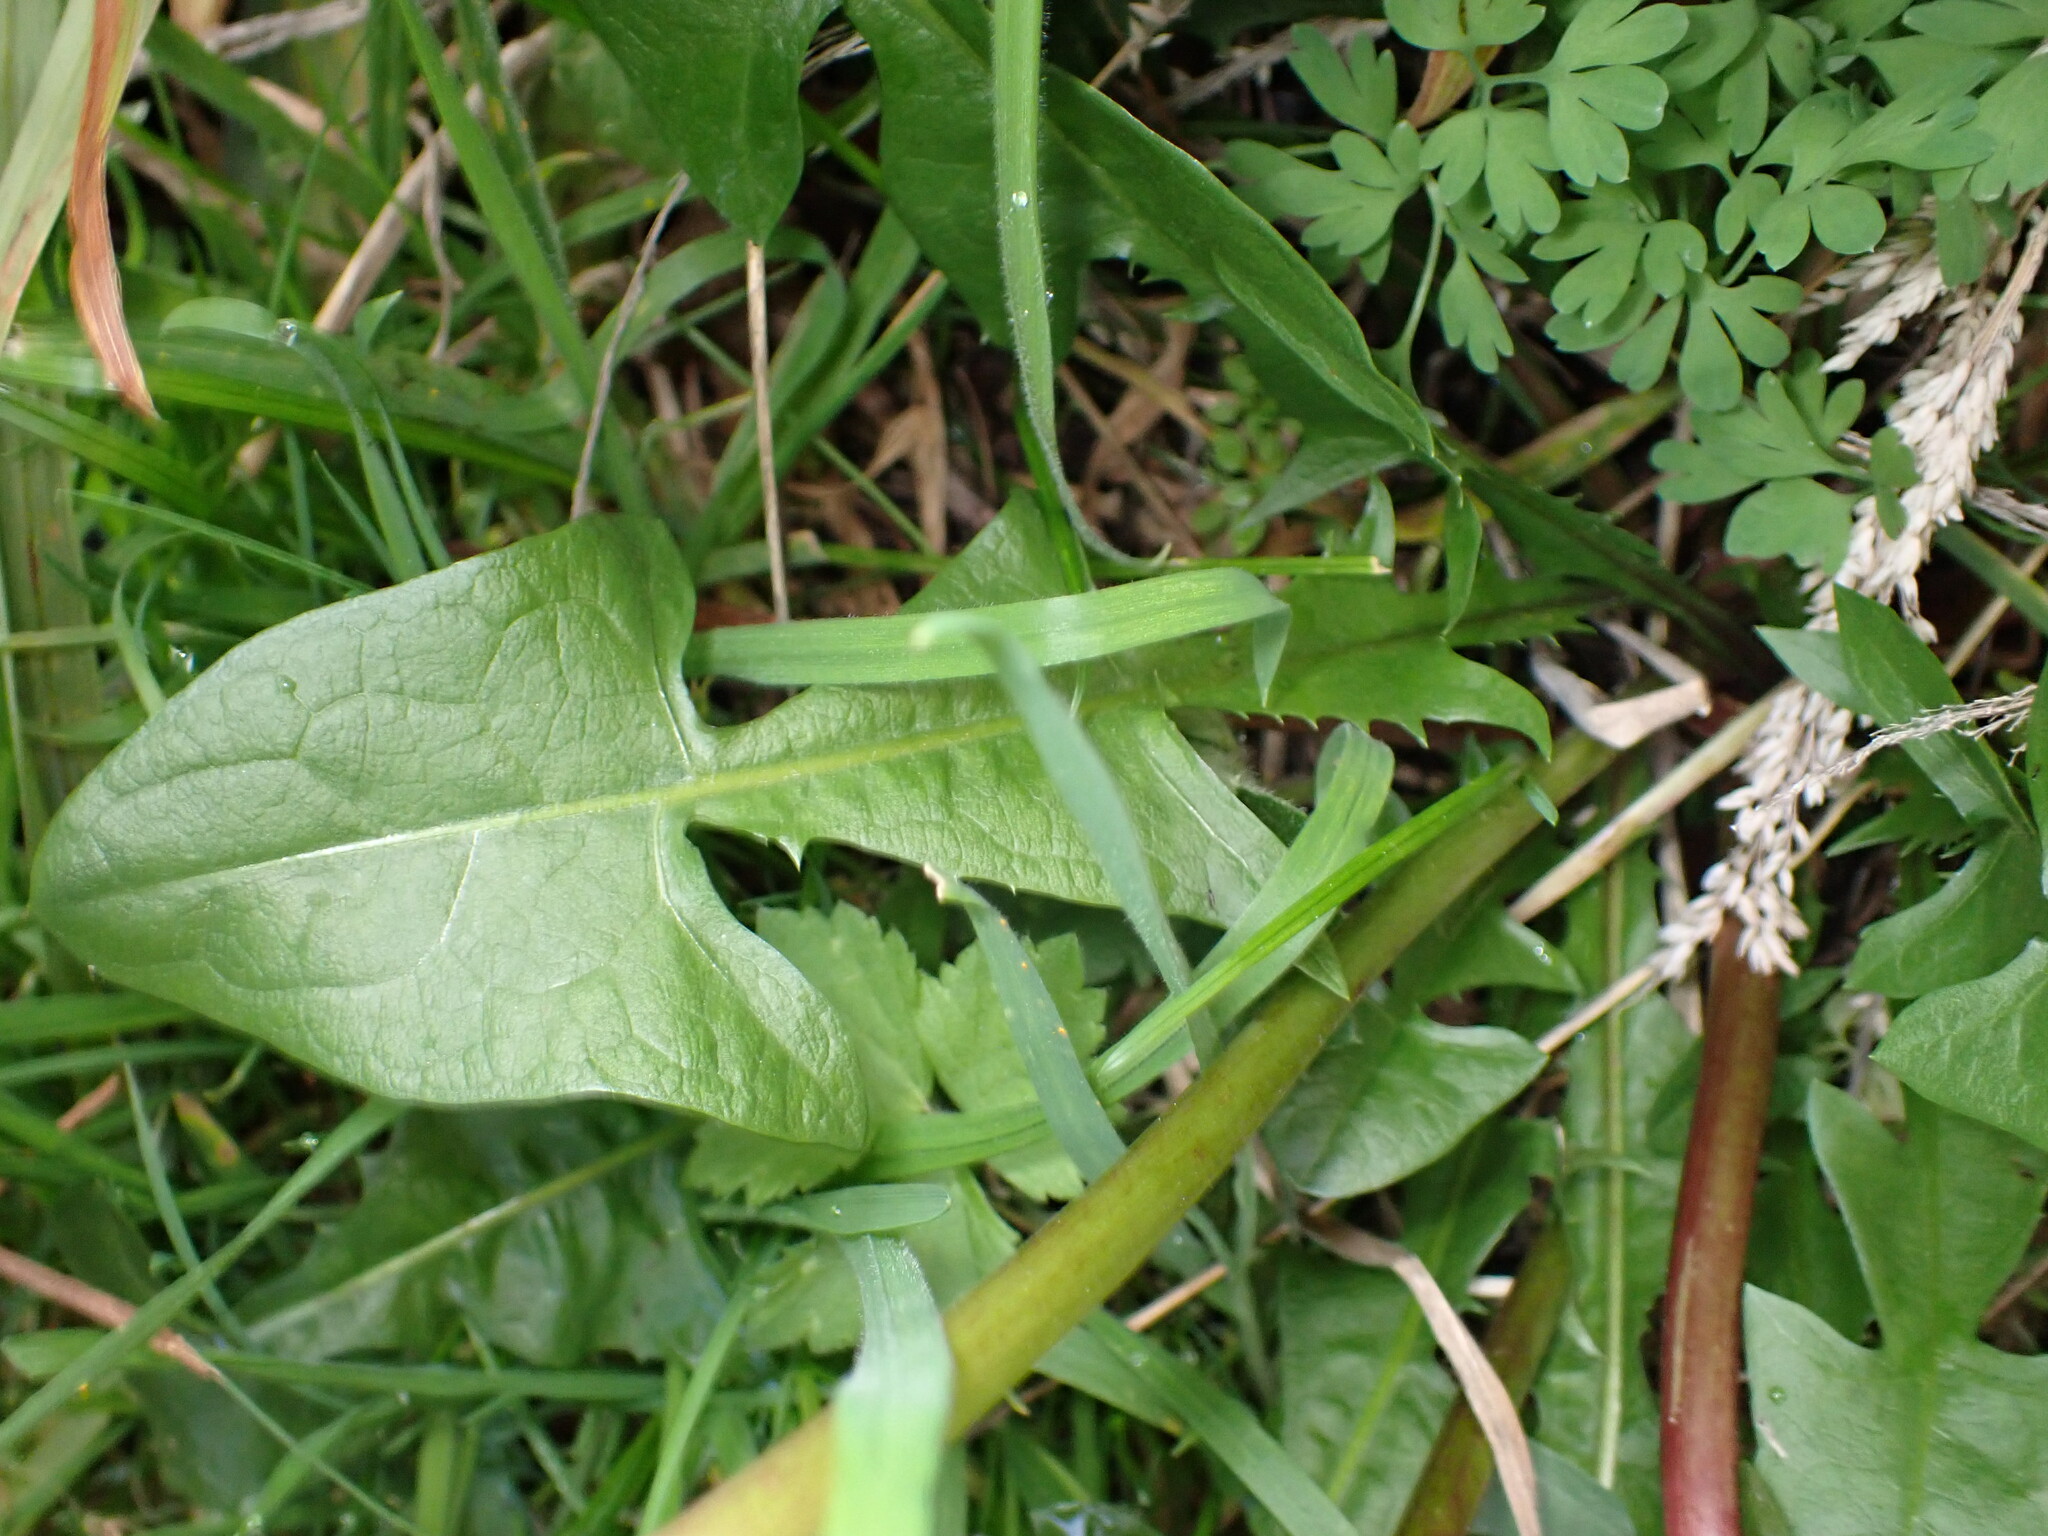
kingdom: Plantae
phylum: Tracheophyta
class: Magnoliopsida
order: Asterales
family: Asteraceae
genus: Taraxacum
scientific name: Taraxacum officinale
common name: Common dandelion
